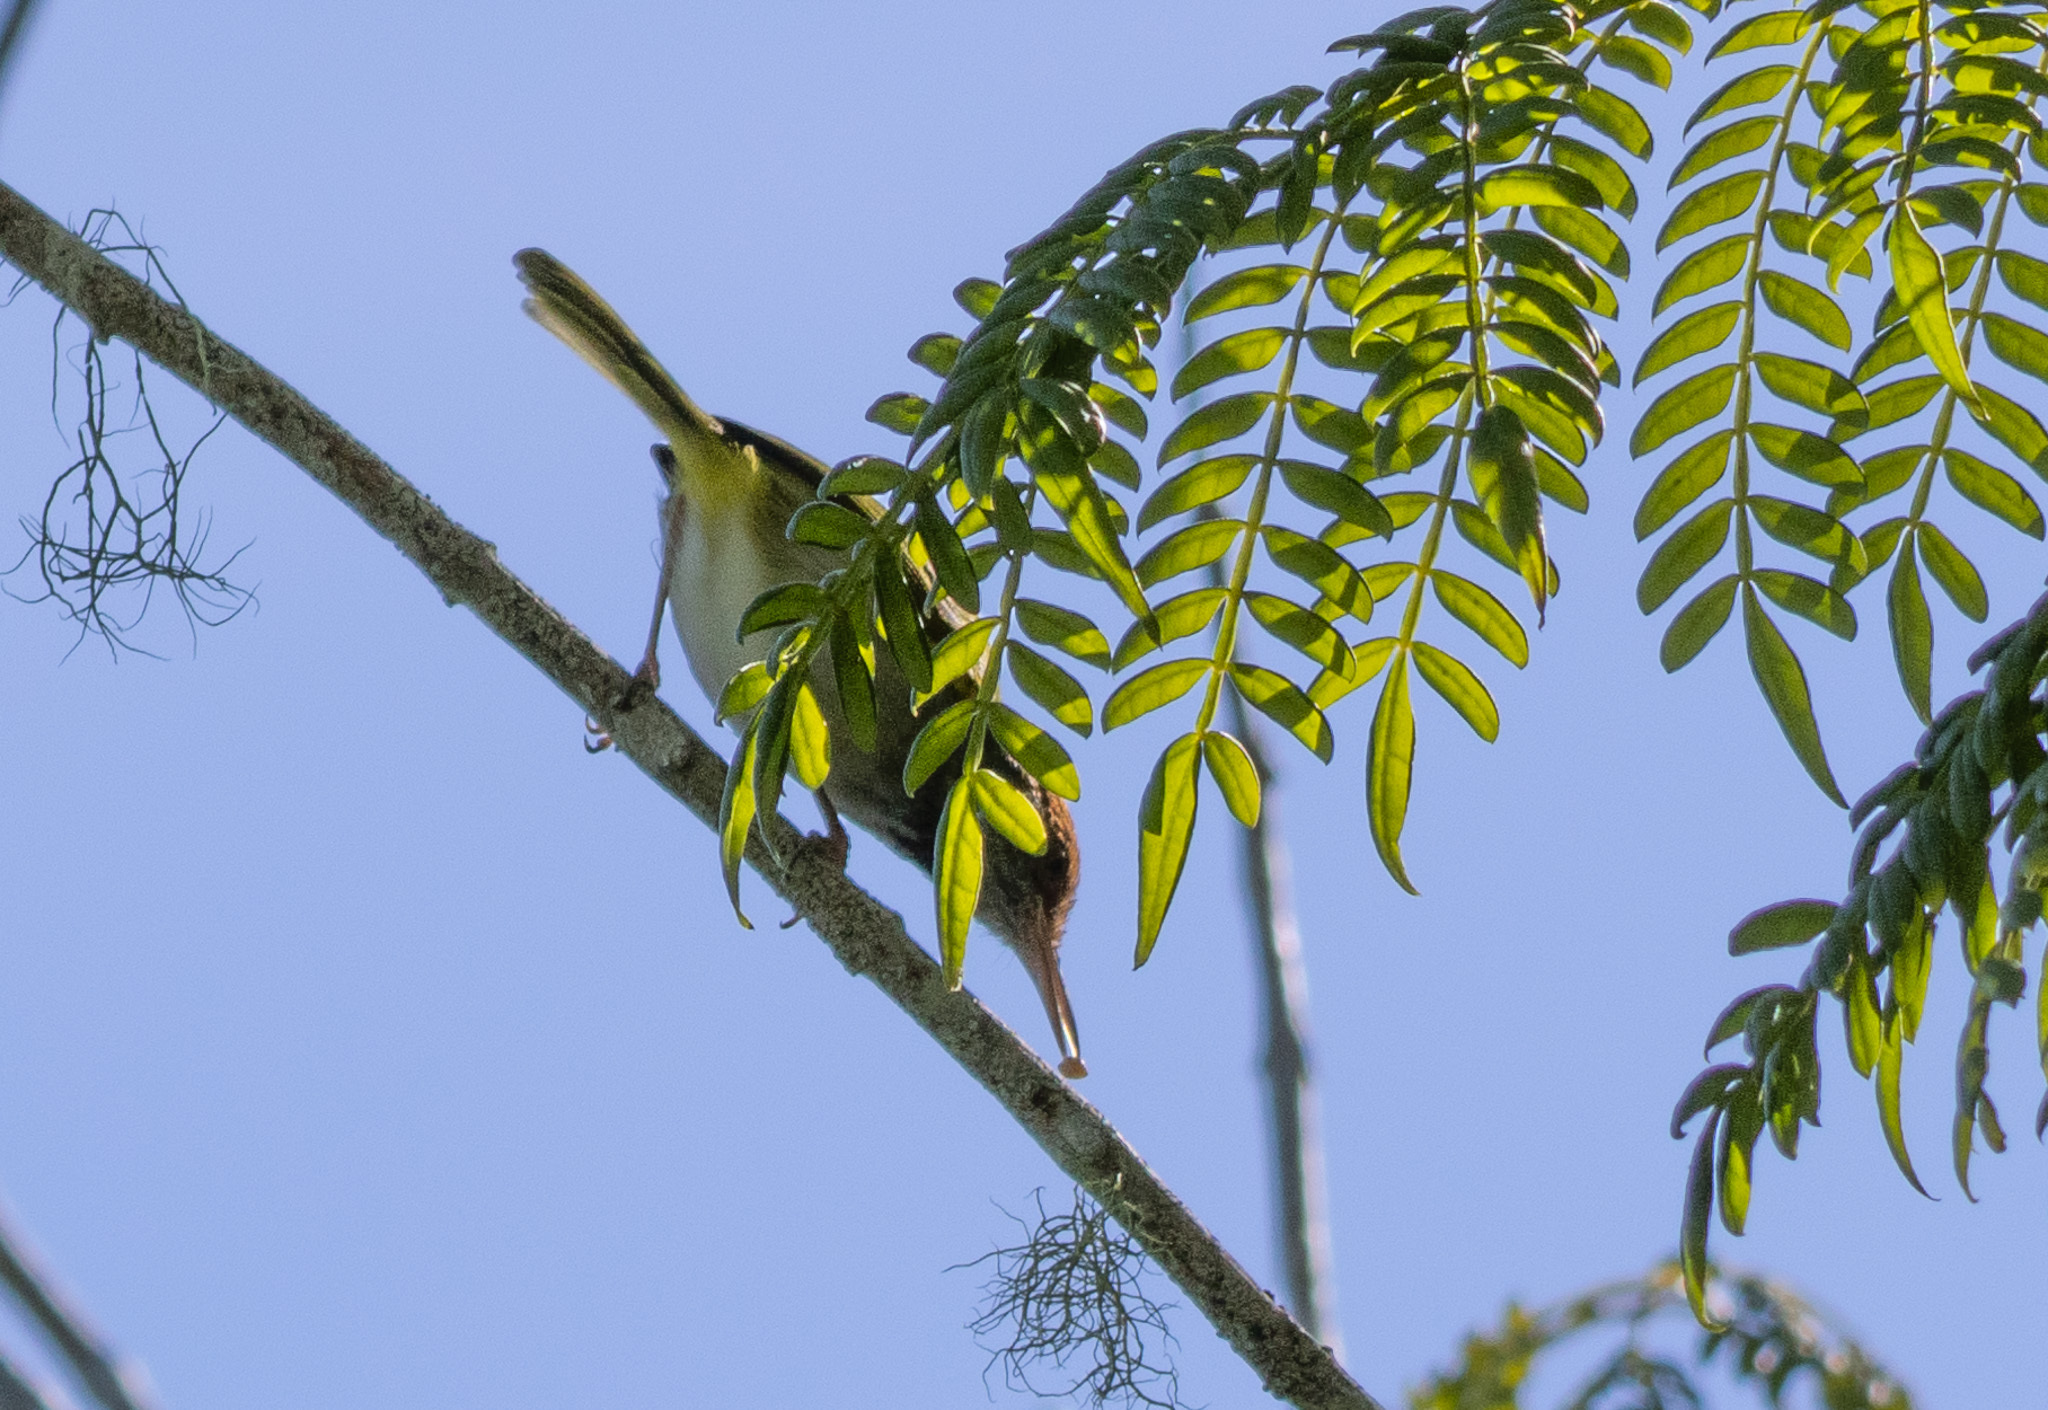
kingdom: Animalia
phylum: Chordata
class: Aves
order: Passeriformes
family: Cisticolidae
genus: Orthotomus
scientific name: Orthotomus atrogularis
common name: Dark-necked tailorbird
